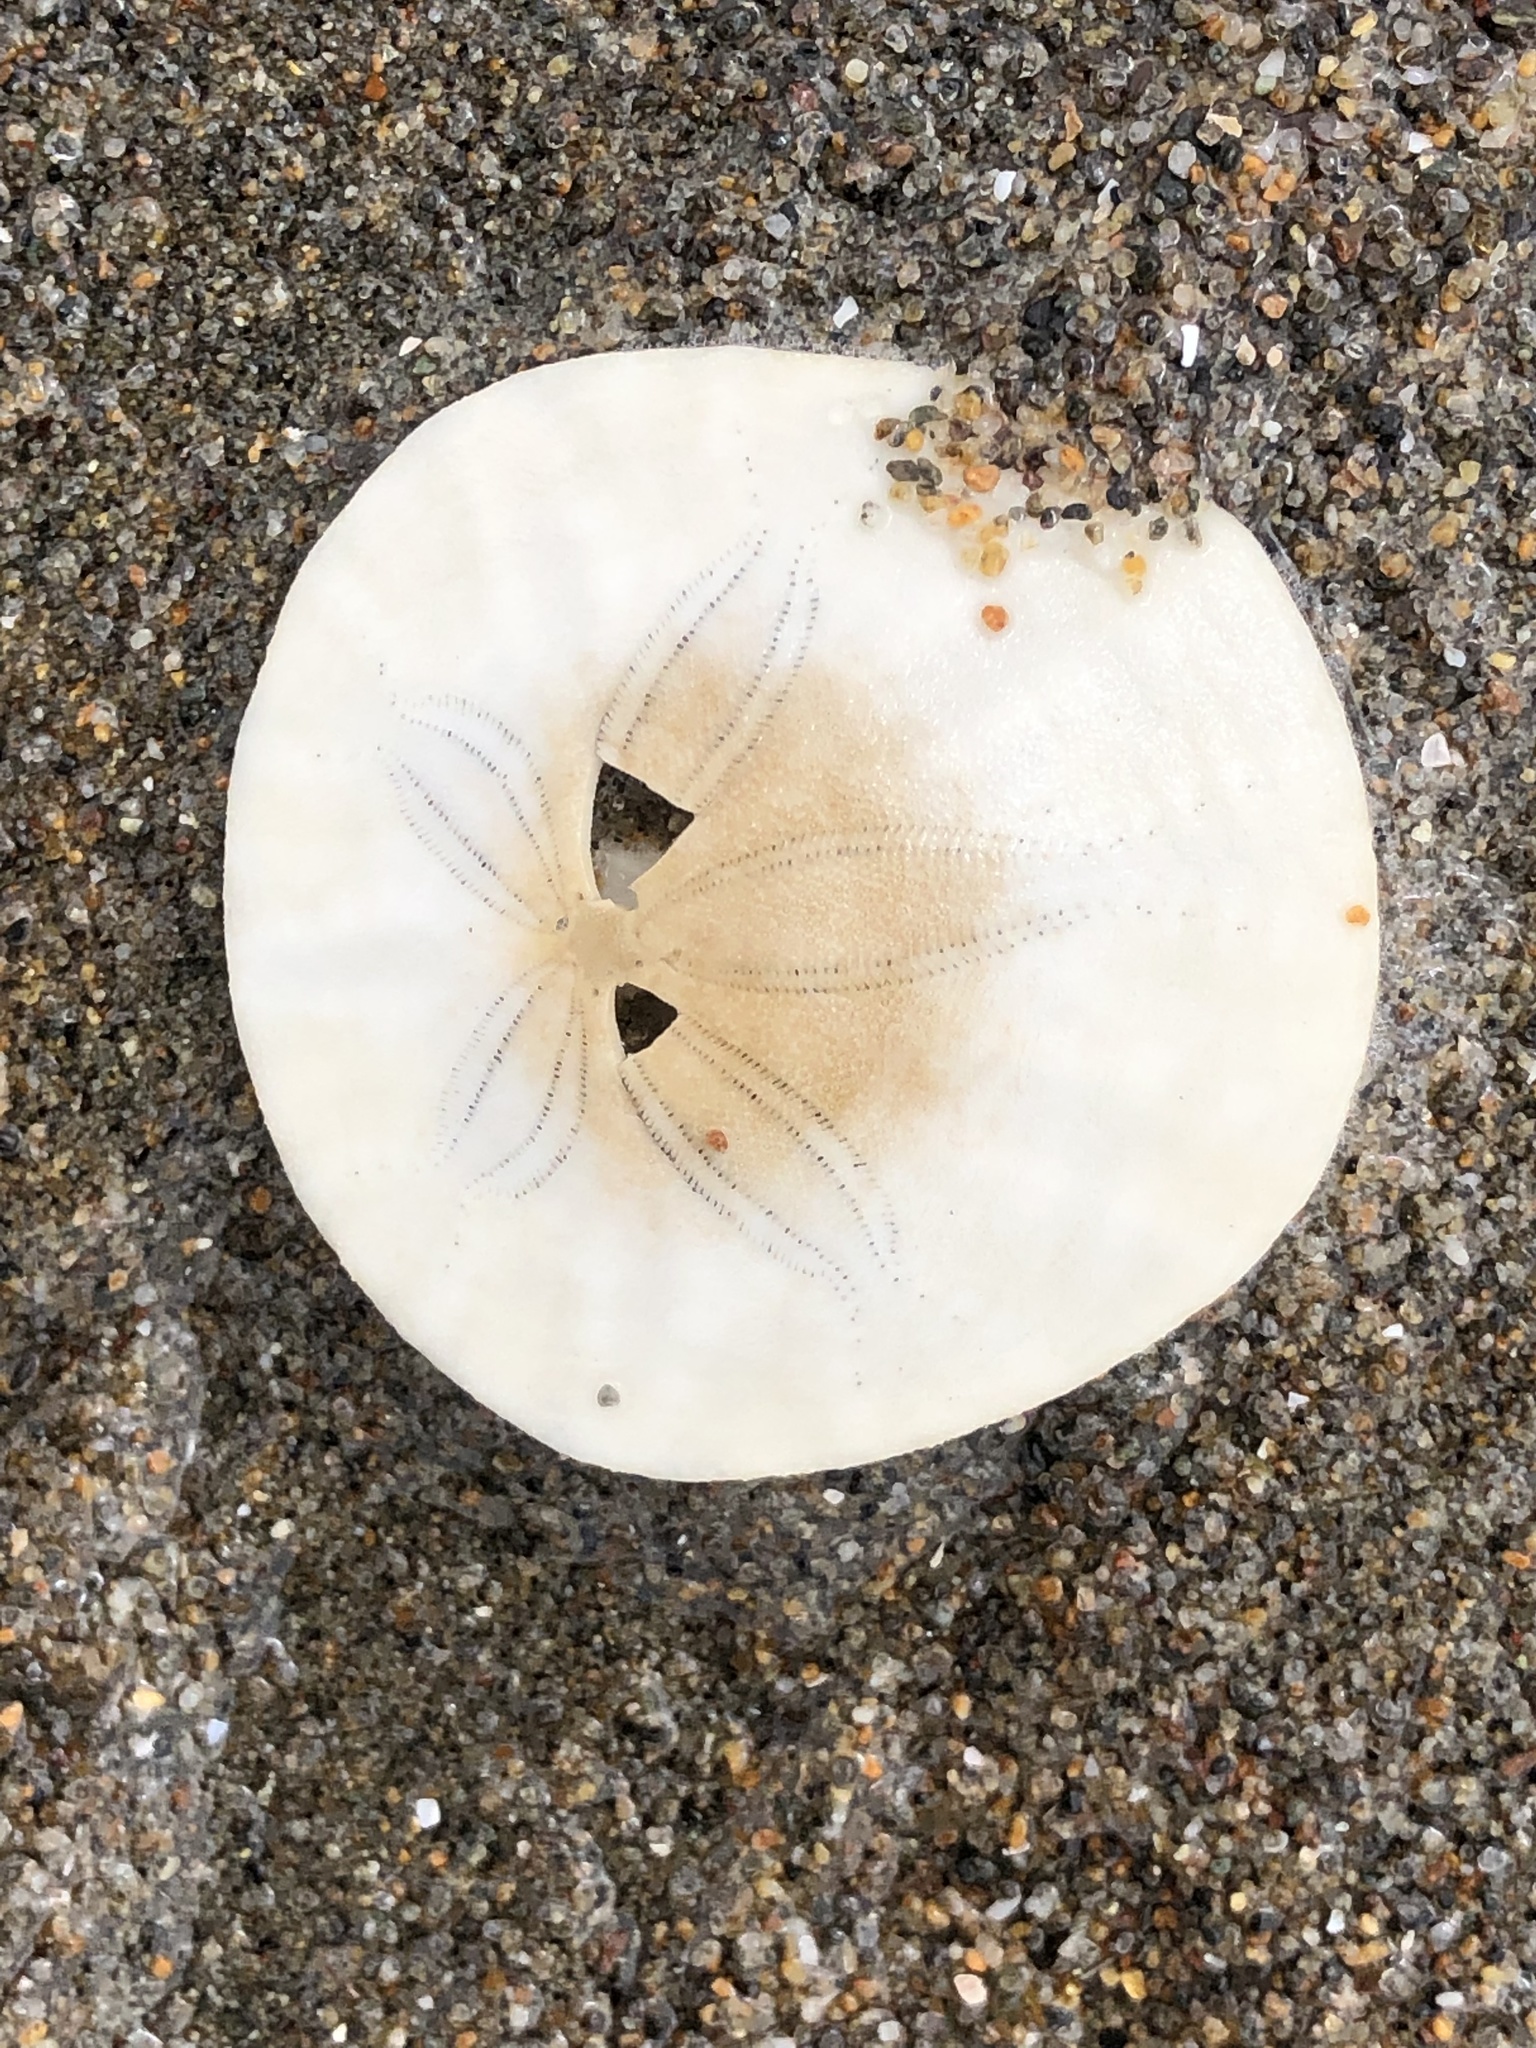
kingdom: Animalia
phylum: Echinodermata
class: Echinoidea
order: Echinolampadacea
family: Dendrasteridae
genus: Dendraster
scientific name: Dendraster excentricus
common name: Eccentric sand dollar sea urchin
